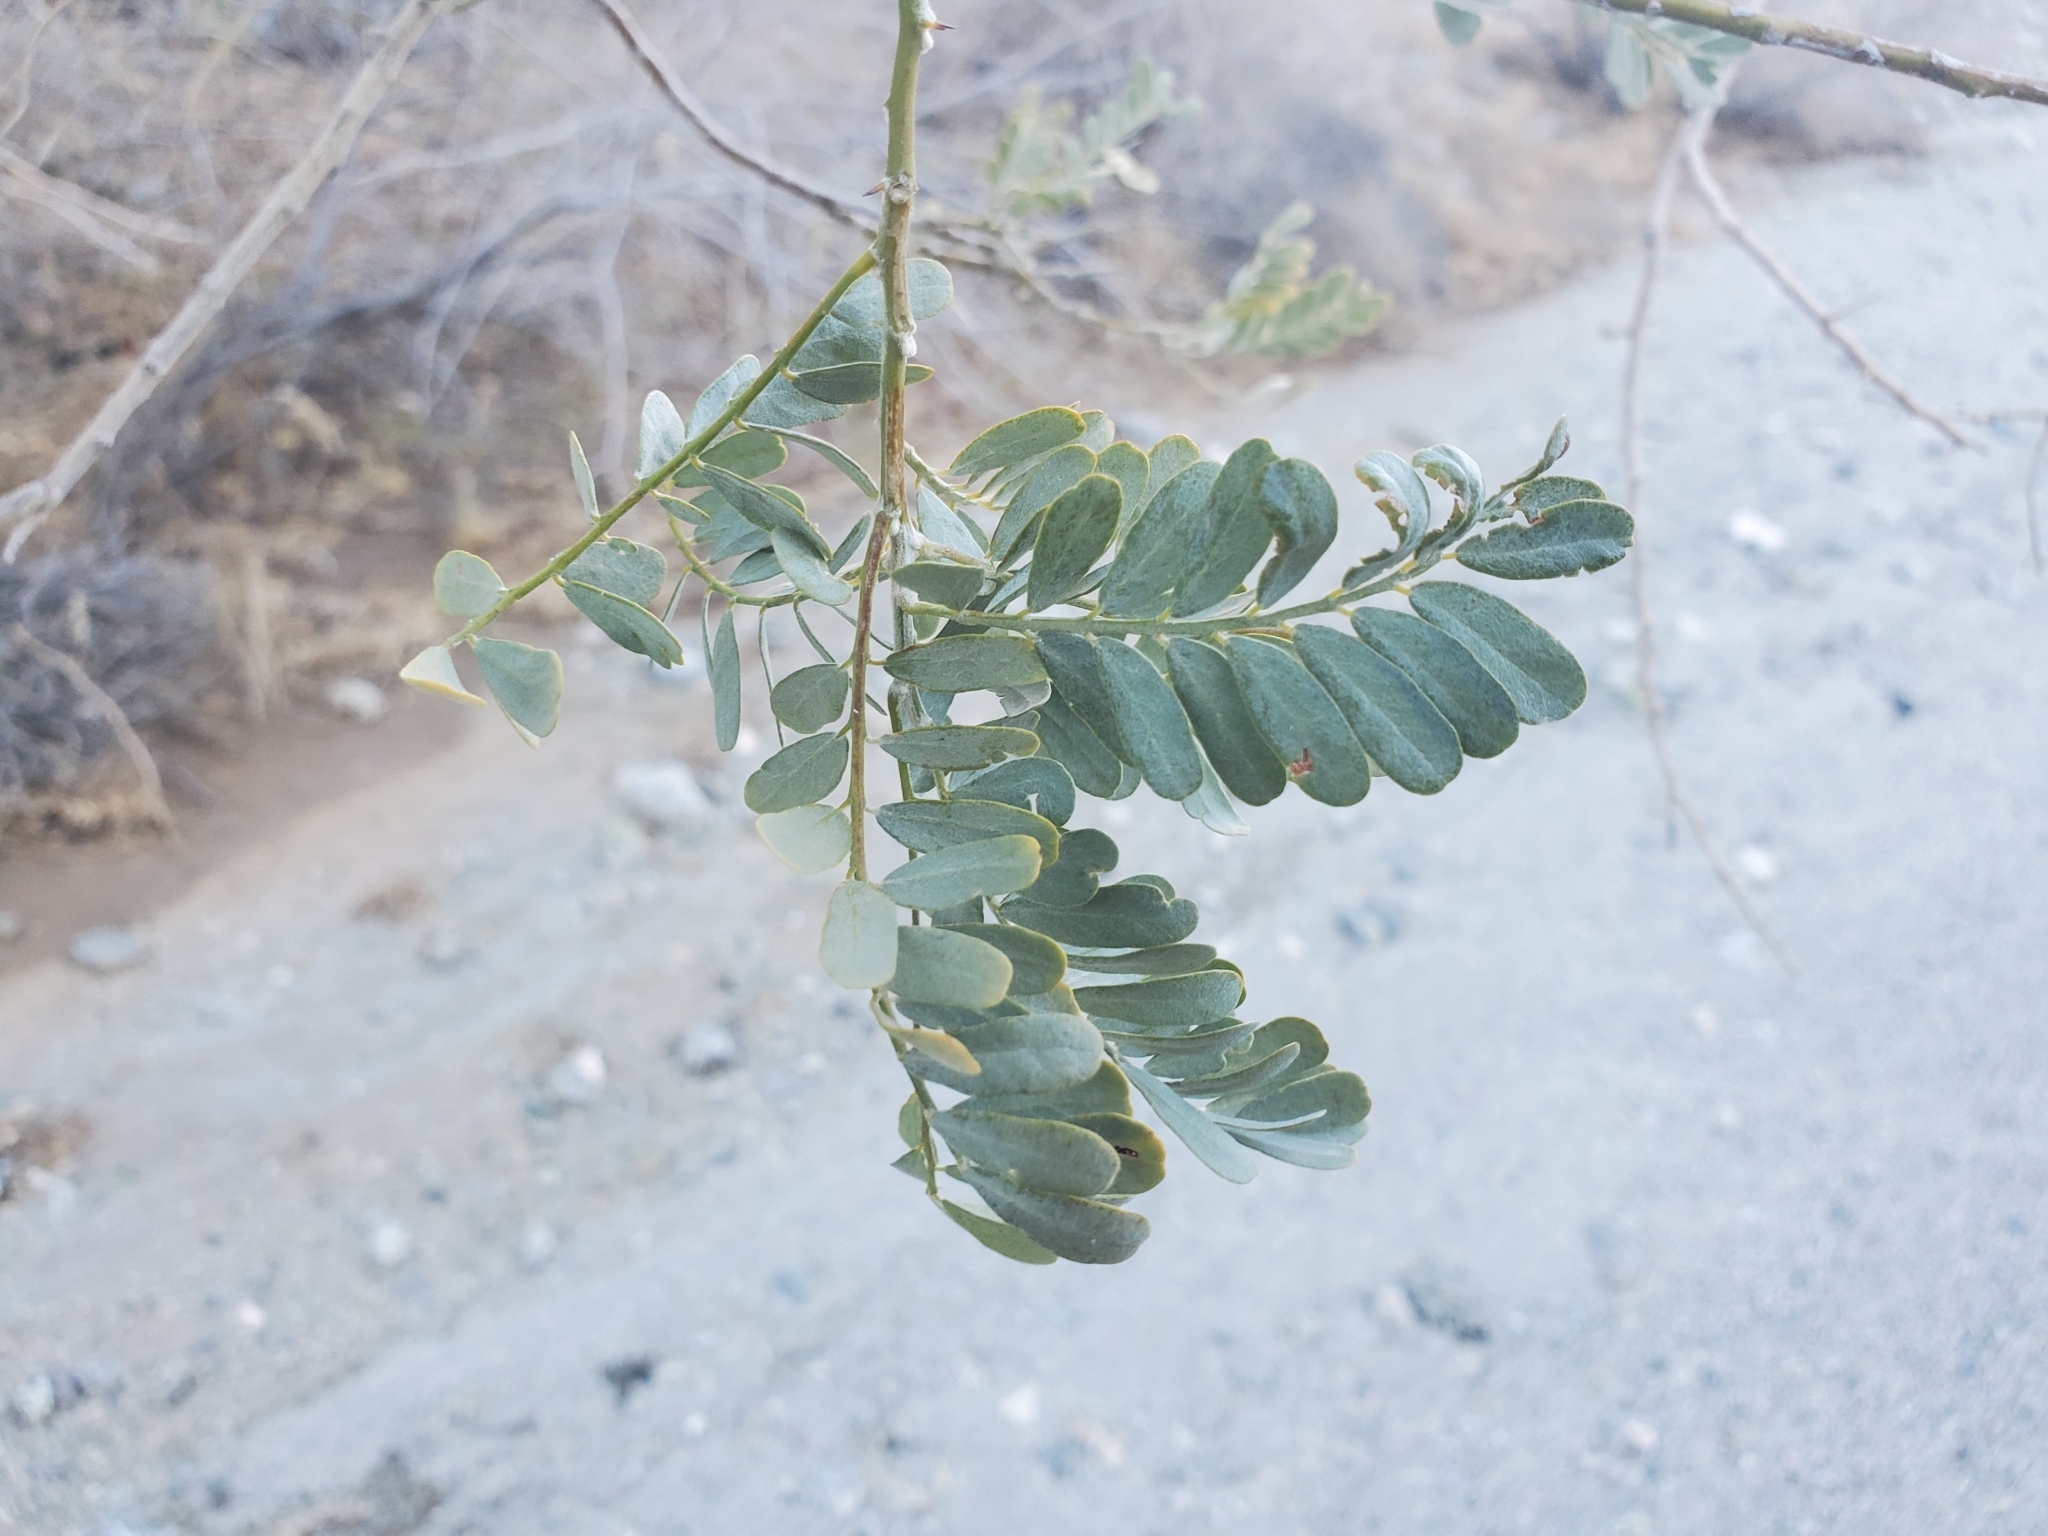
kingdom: Plantae
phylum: Tracheophyta
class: Magnoliopsida
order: Fabales
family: Fabaceae
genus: Olneya
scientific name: Olneya tesota
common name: Desert ironwood
